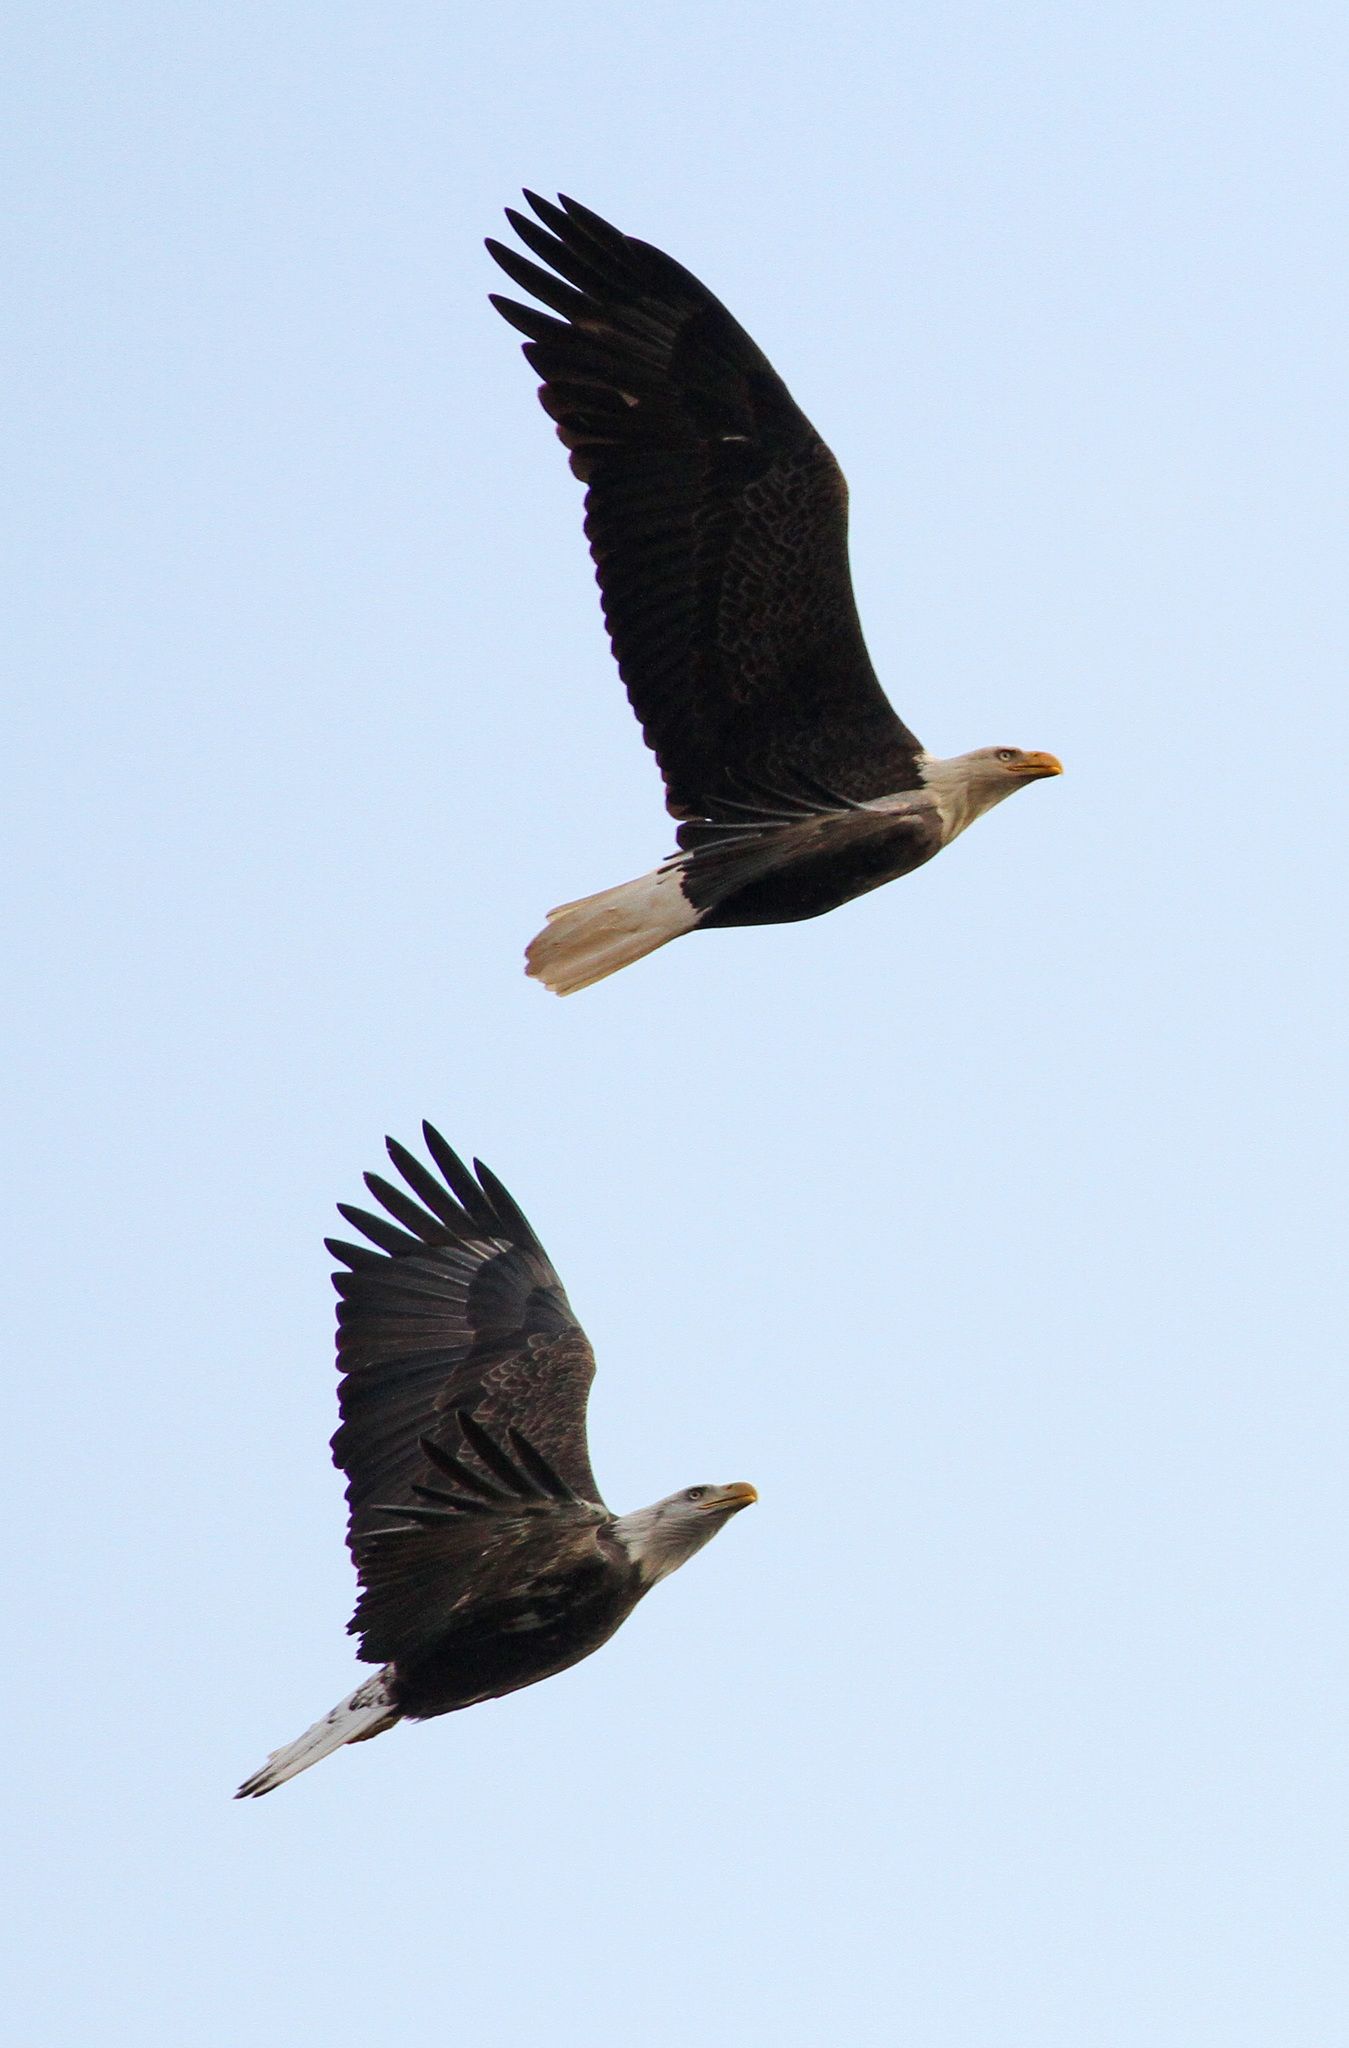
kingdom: Animalia
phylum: Chordata
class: Aves
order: Accipitriformes
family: Accipitridae
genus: Haliaeetus
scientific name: Haliaeetus leucocephalus
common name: Bald eagle
